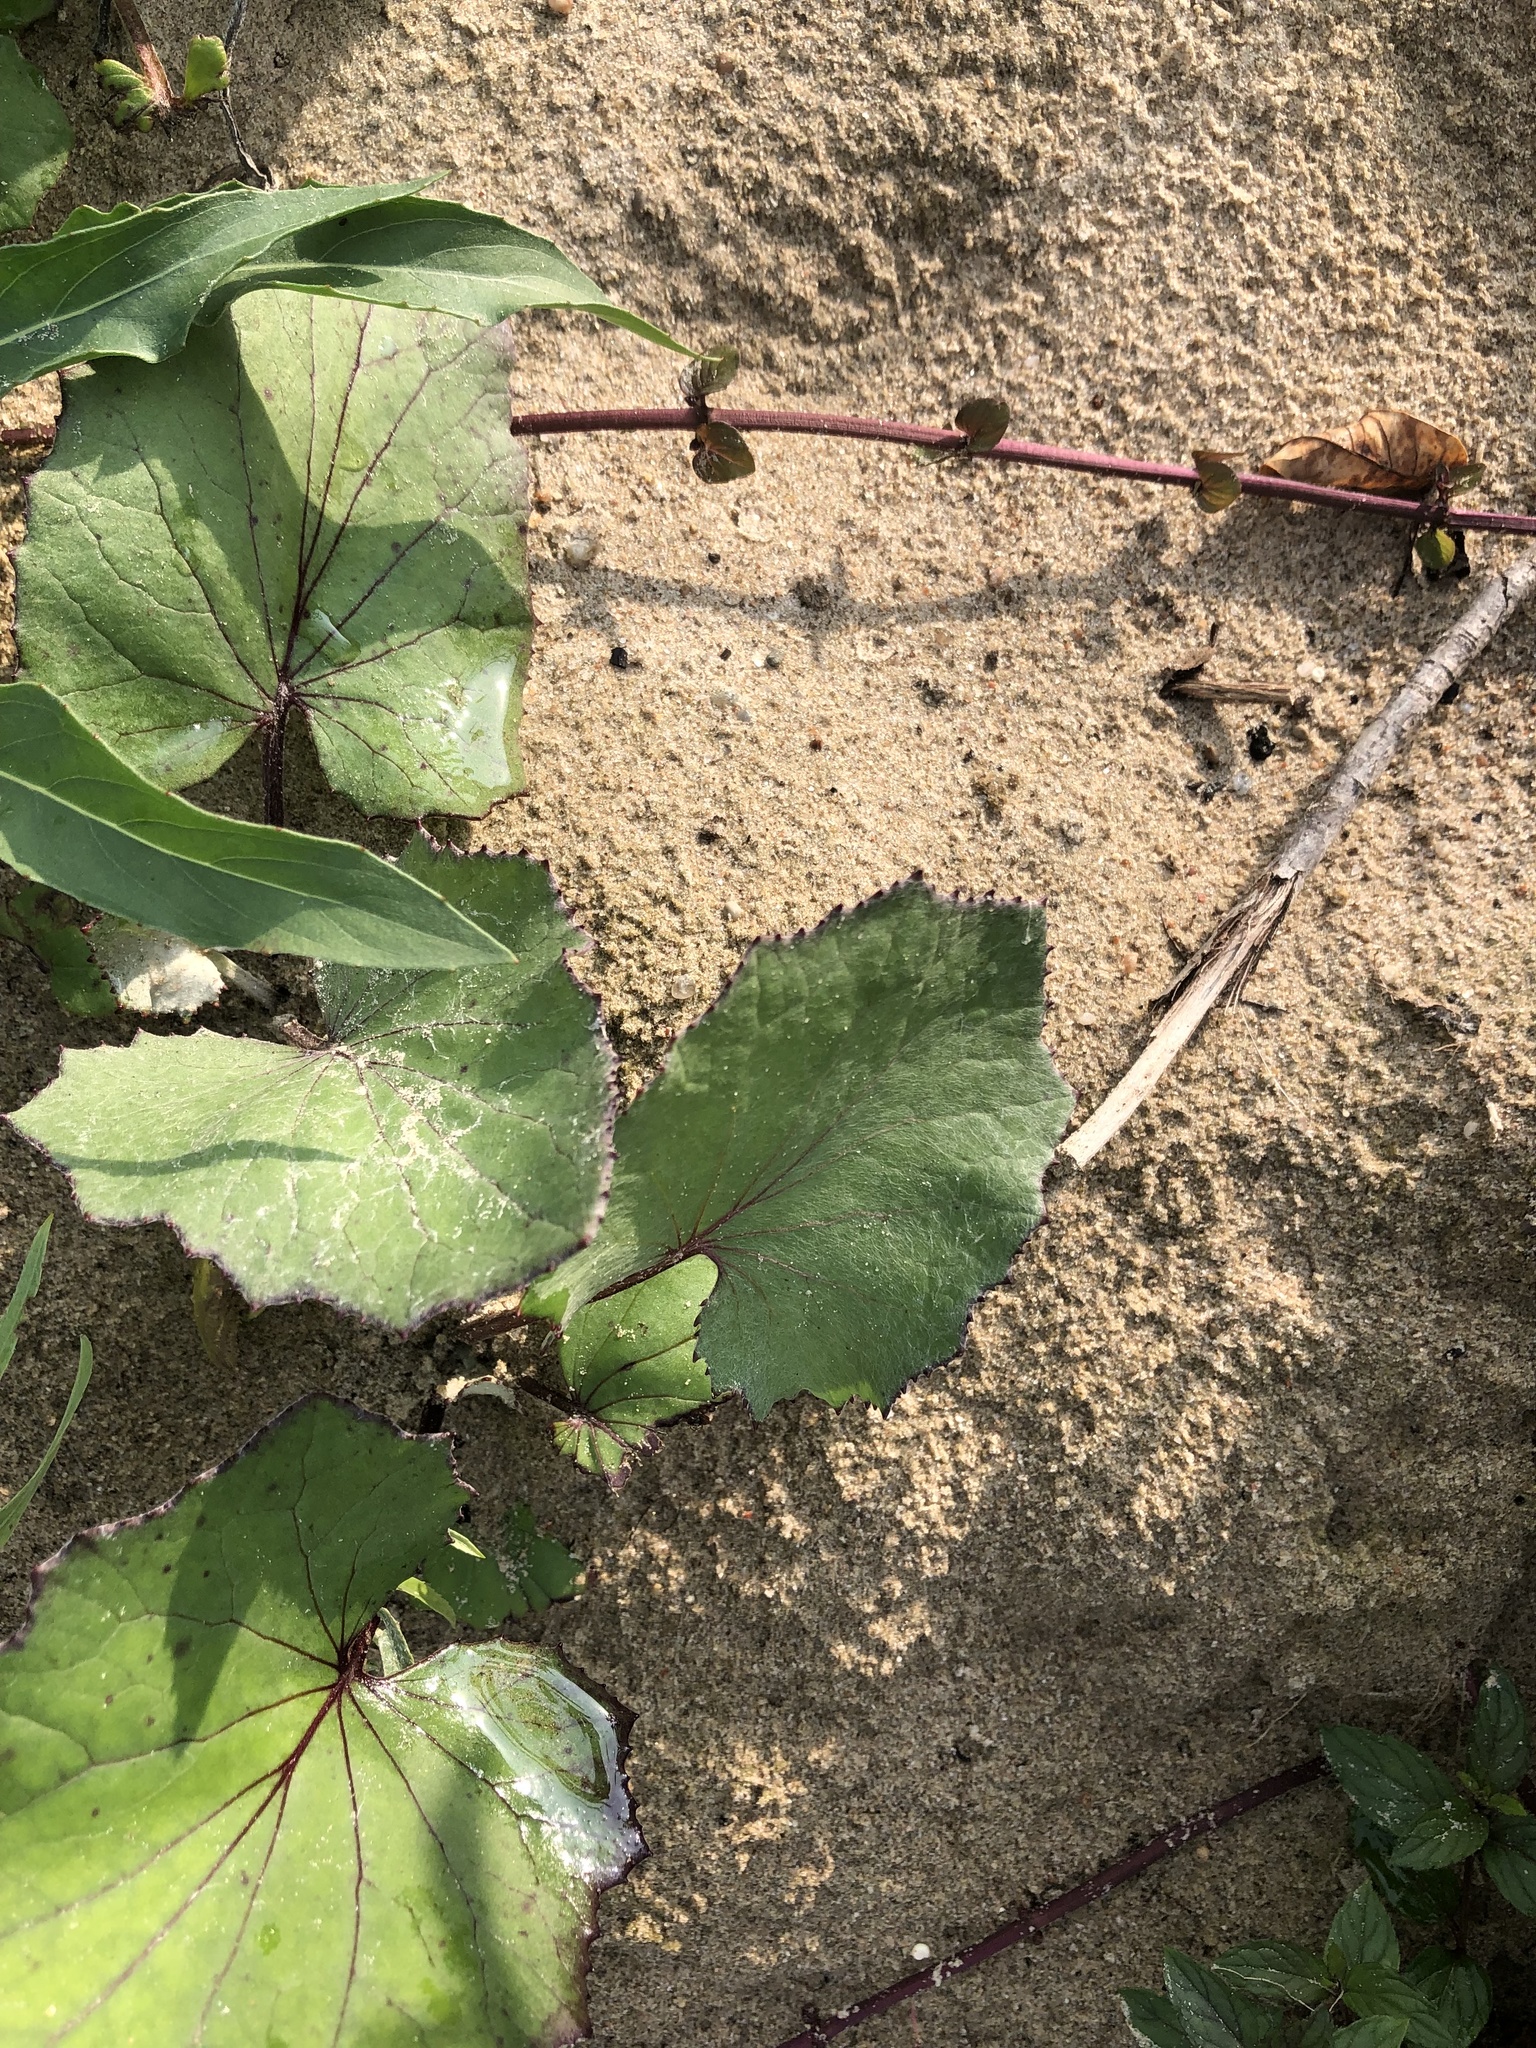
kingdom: Plantae
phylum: Tracheophyta
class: Magnoliopsida
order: Asterales
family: Asteraceae
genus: Tussilago
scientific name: Tussilago farfara
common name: Coltsfoot
